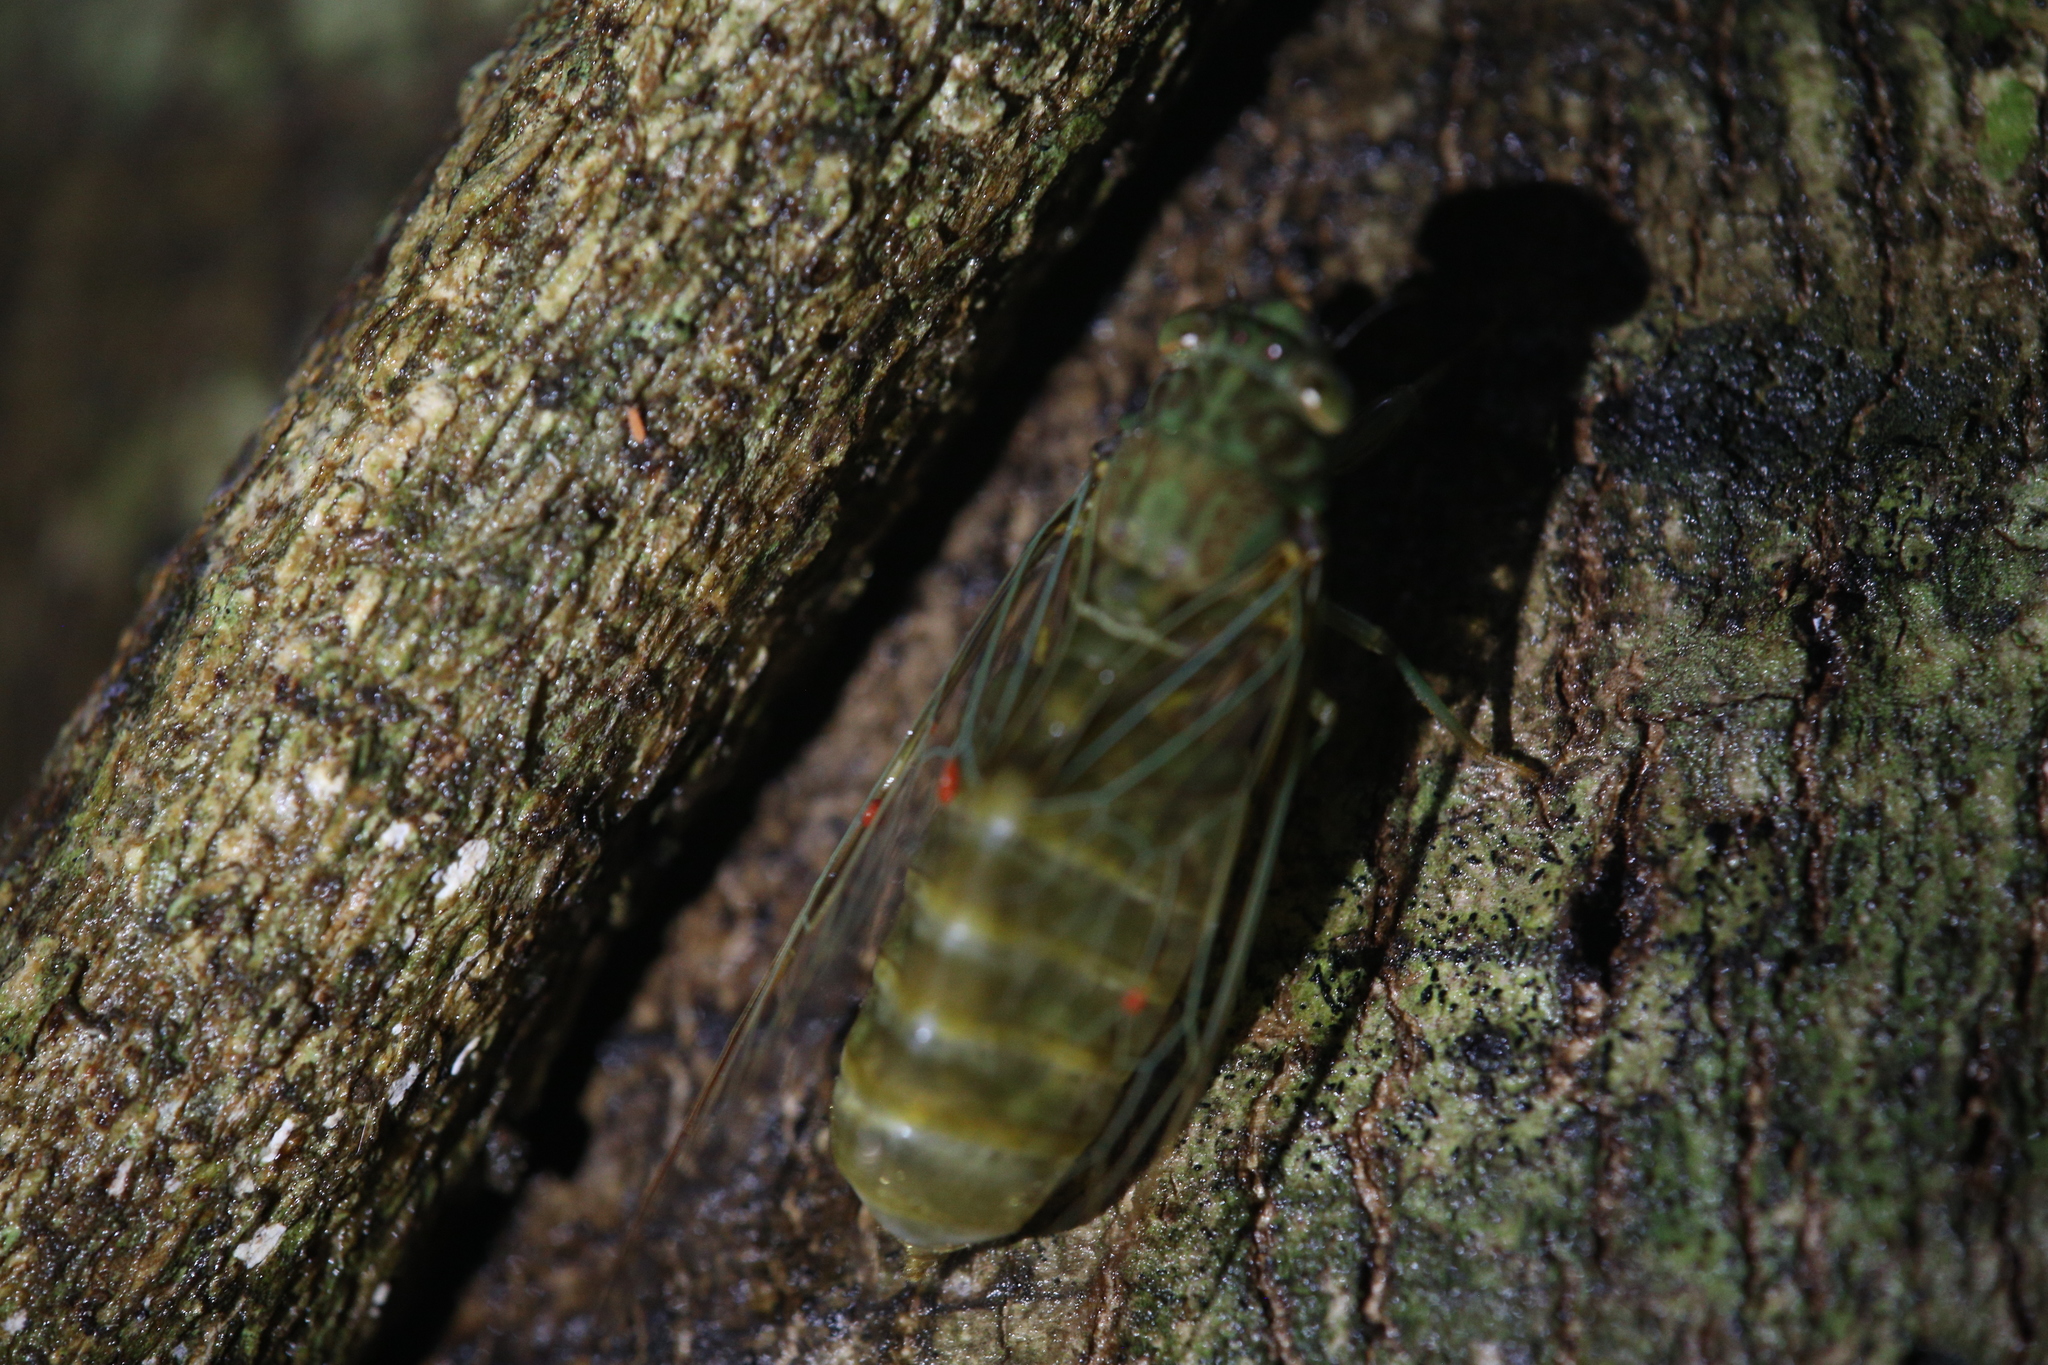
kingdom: Animalia
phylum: Arthropoda
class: Insecta
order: Hemiptera
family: Cicadidae
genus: Chlorocysta
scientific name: Chlorocysta suffusa
